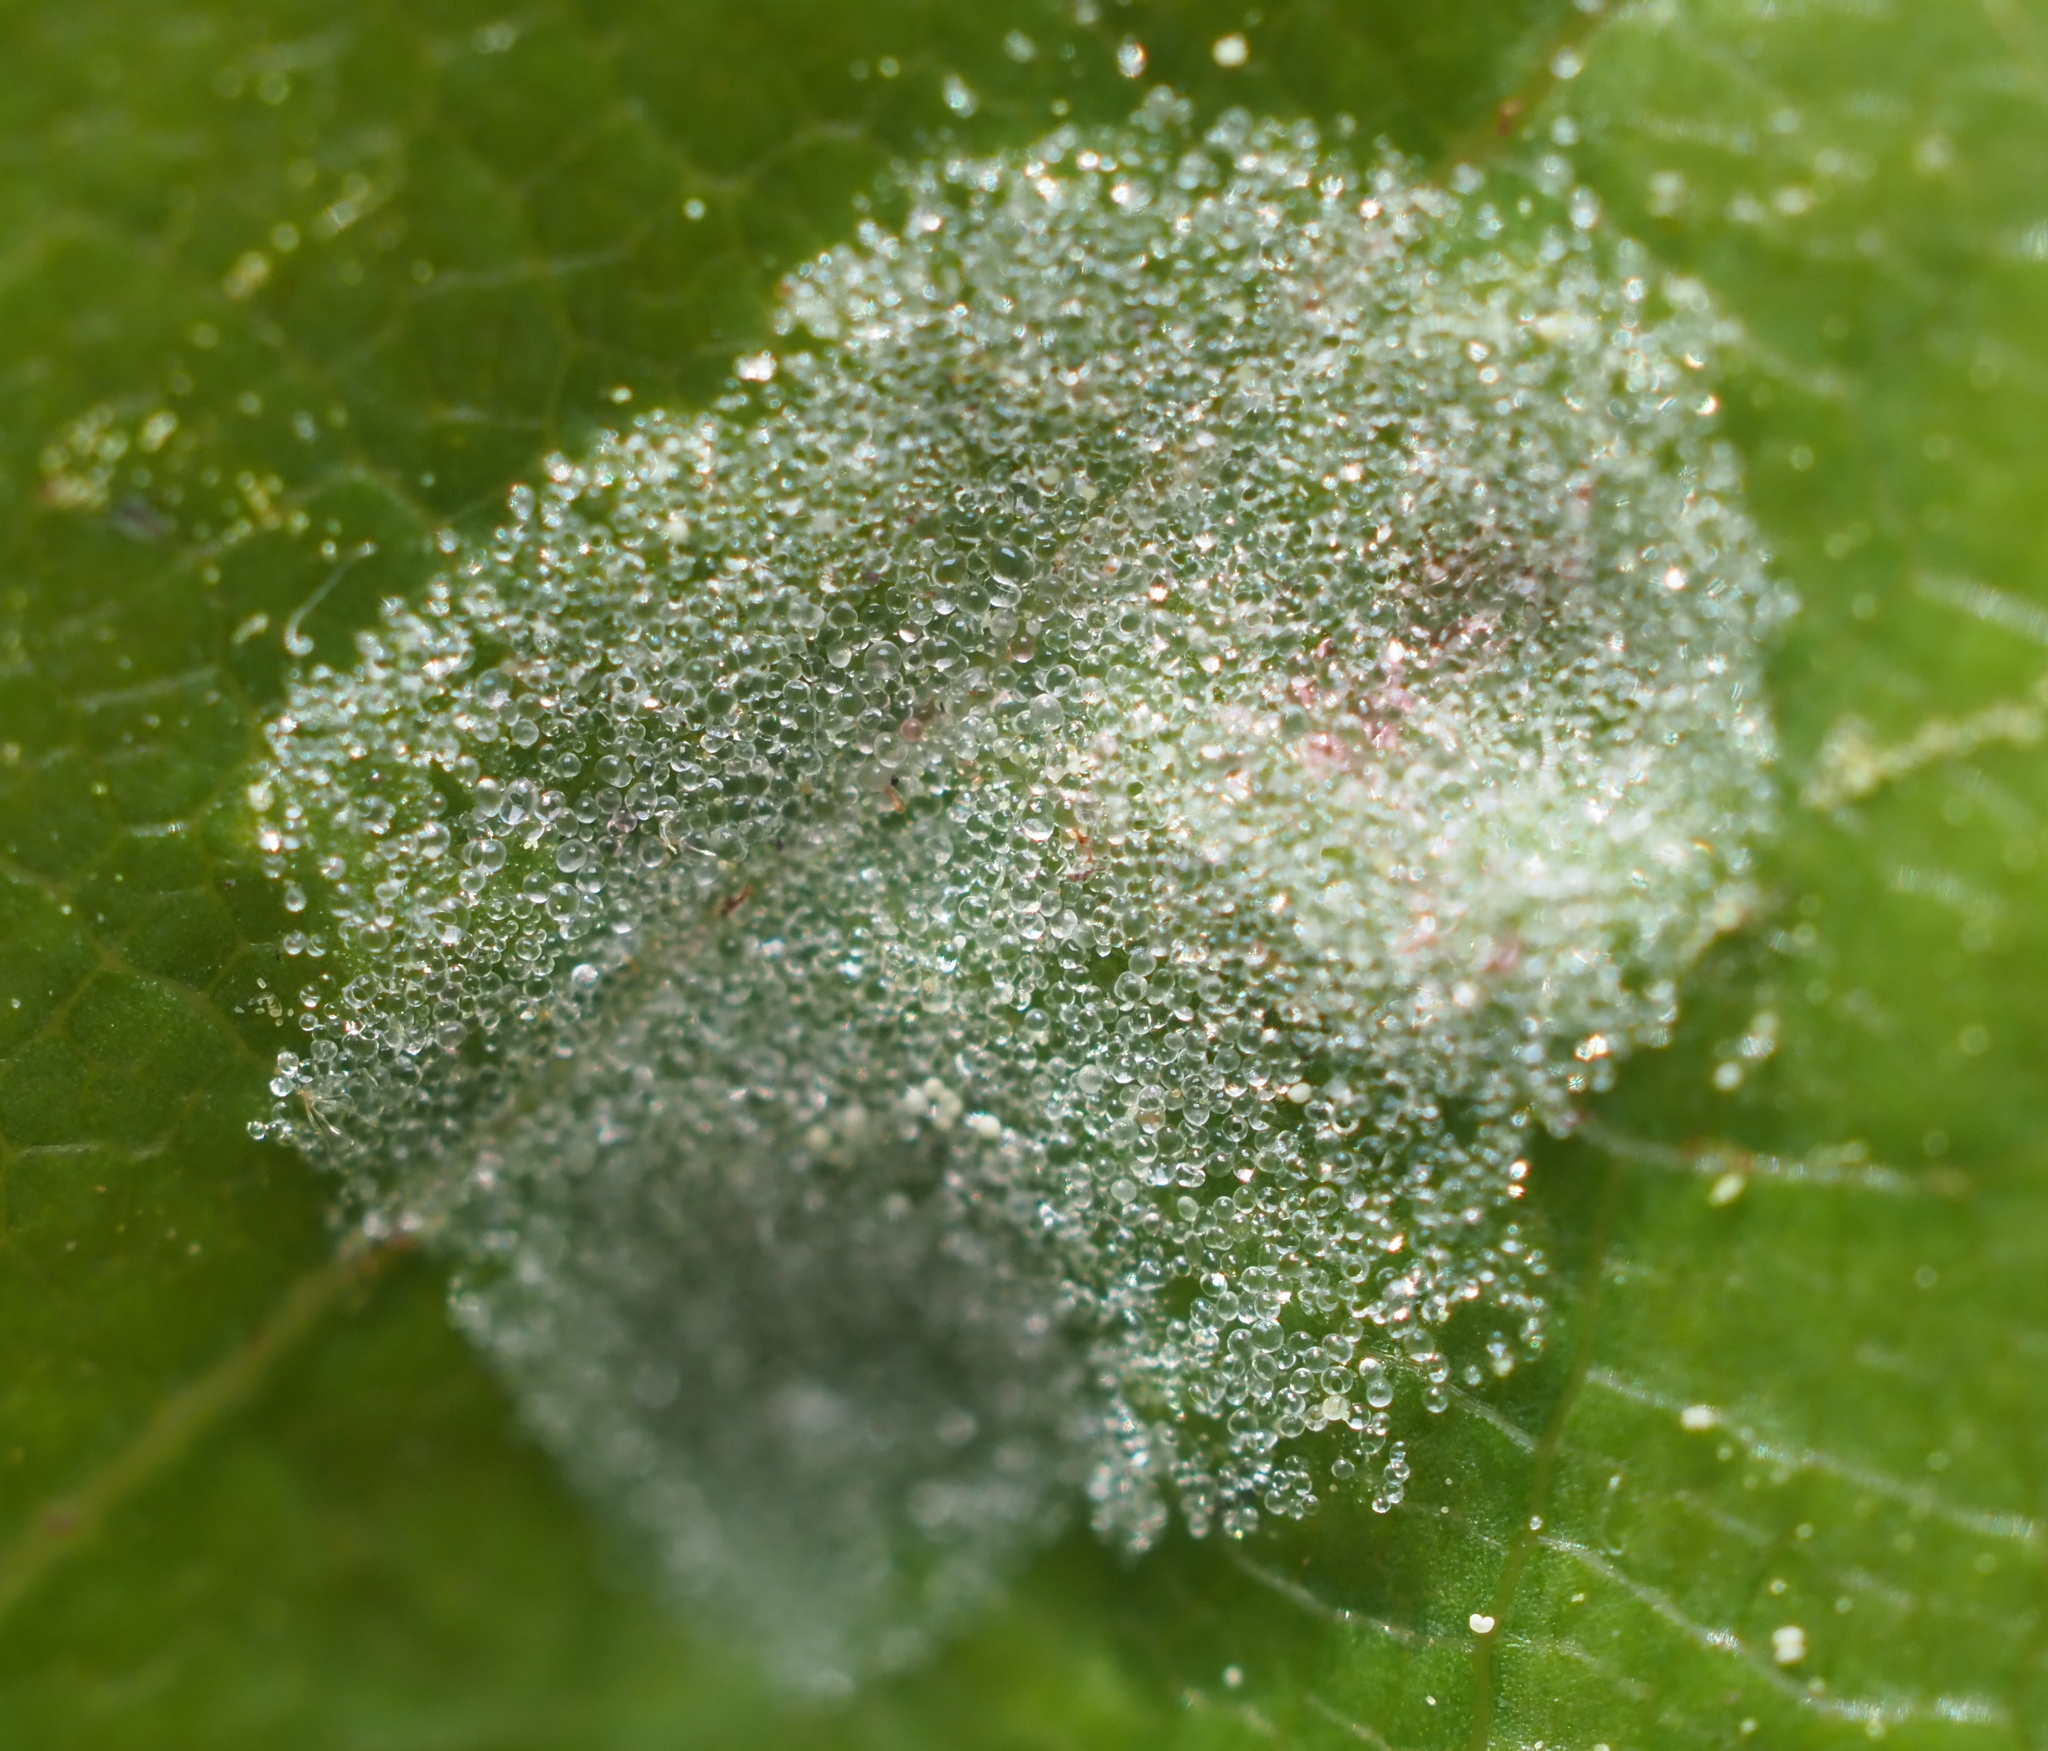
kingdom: Animalia
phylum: Arthropoda
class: Arachnida
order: Trombidiformes
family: Eriophyidae
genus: Aculus
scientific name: Aculus
